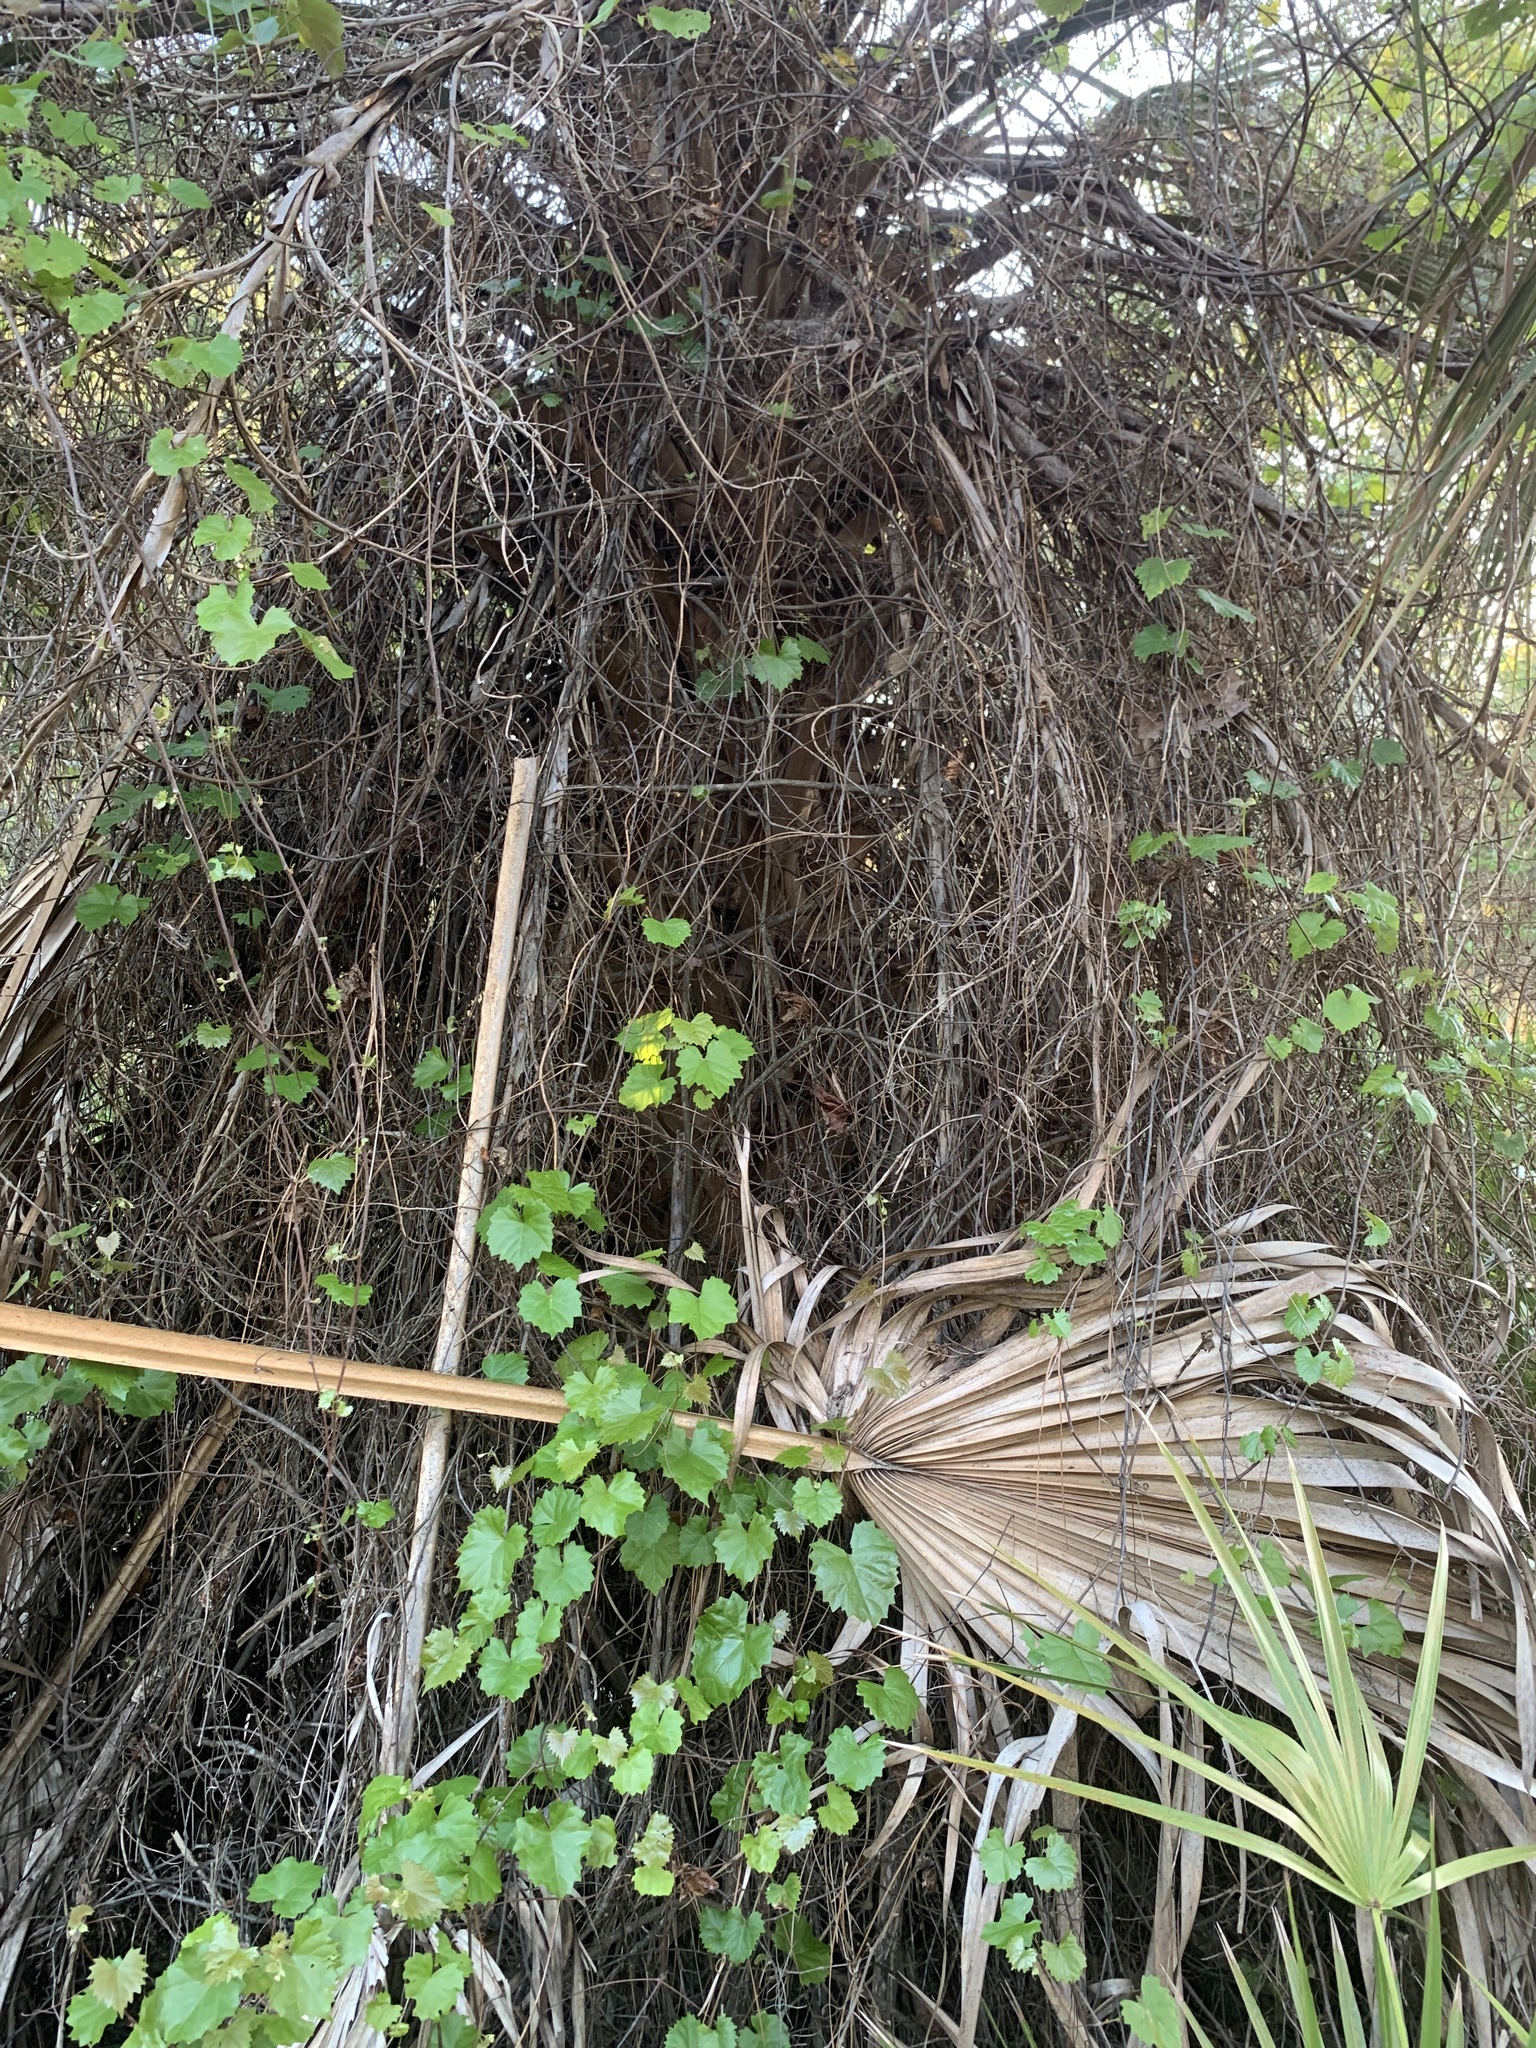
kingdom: Plantae
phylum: Tracheophyta
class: Magnoliopsida
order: Vitales
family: Vitaceae
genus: Vitis
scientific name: Vitis rotundifolia
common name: Muscadine grape
